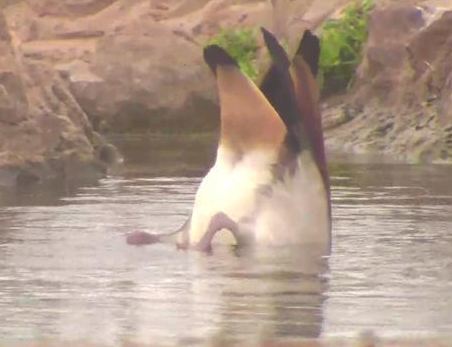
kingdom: Animalia
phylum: Chordata
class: Aves
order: Anseriformes
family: Anatidae
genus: Alopochen
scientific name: Alopochen aegyptiaca
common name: Egyptian goose
